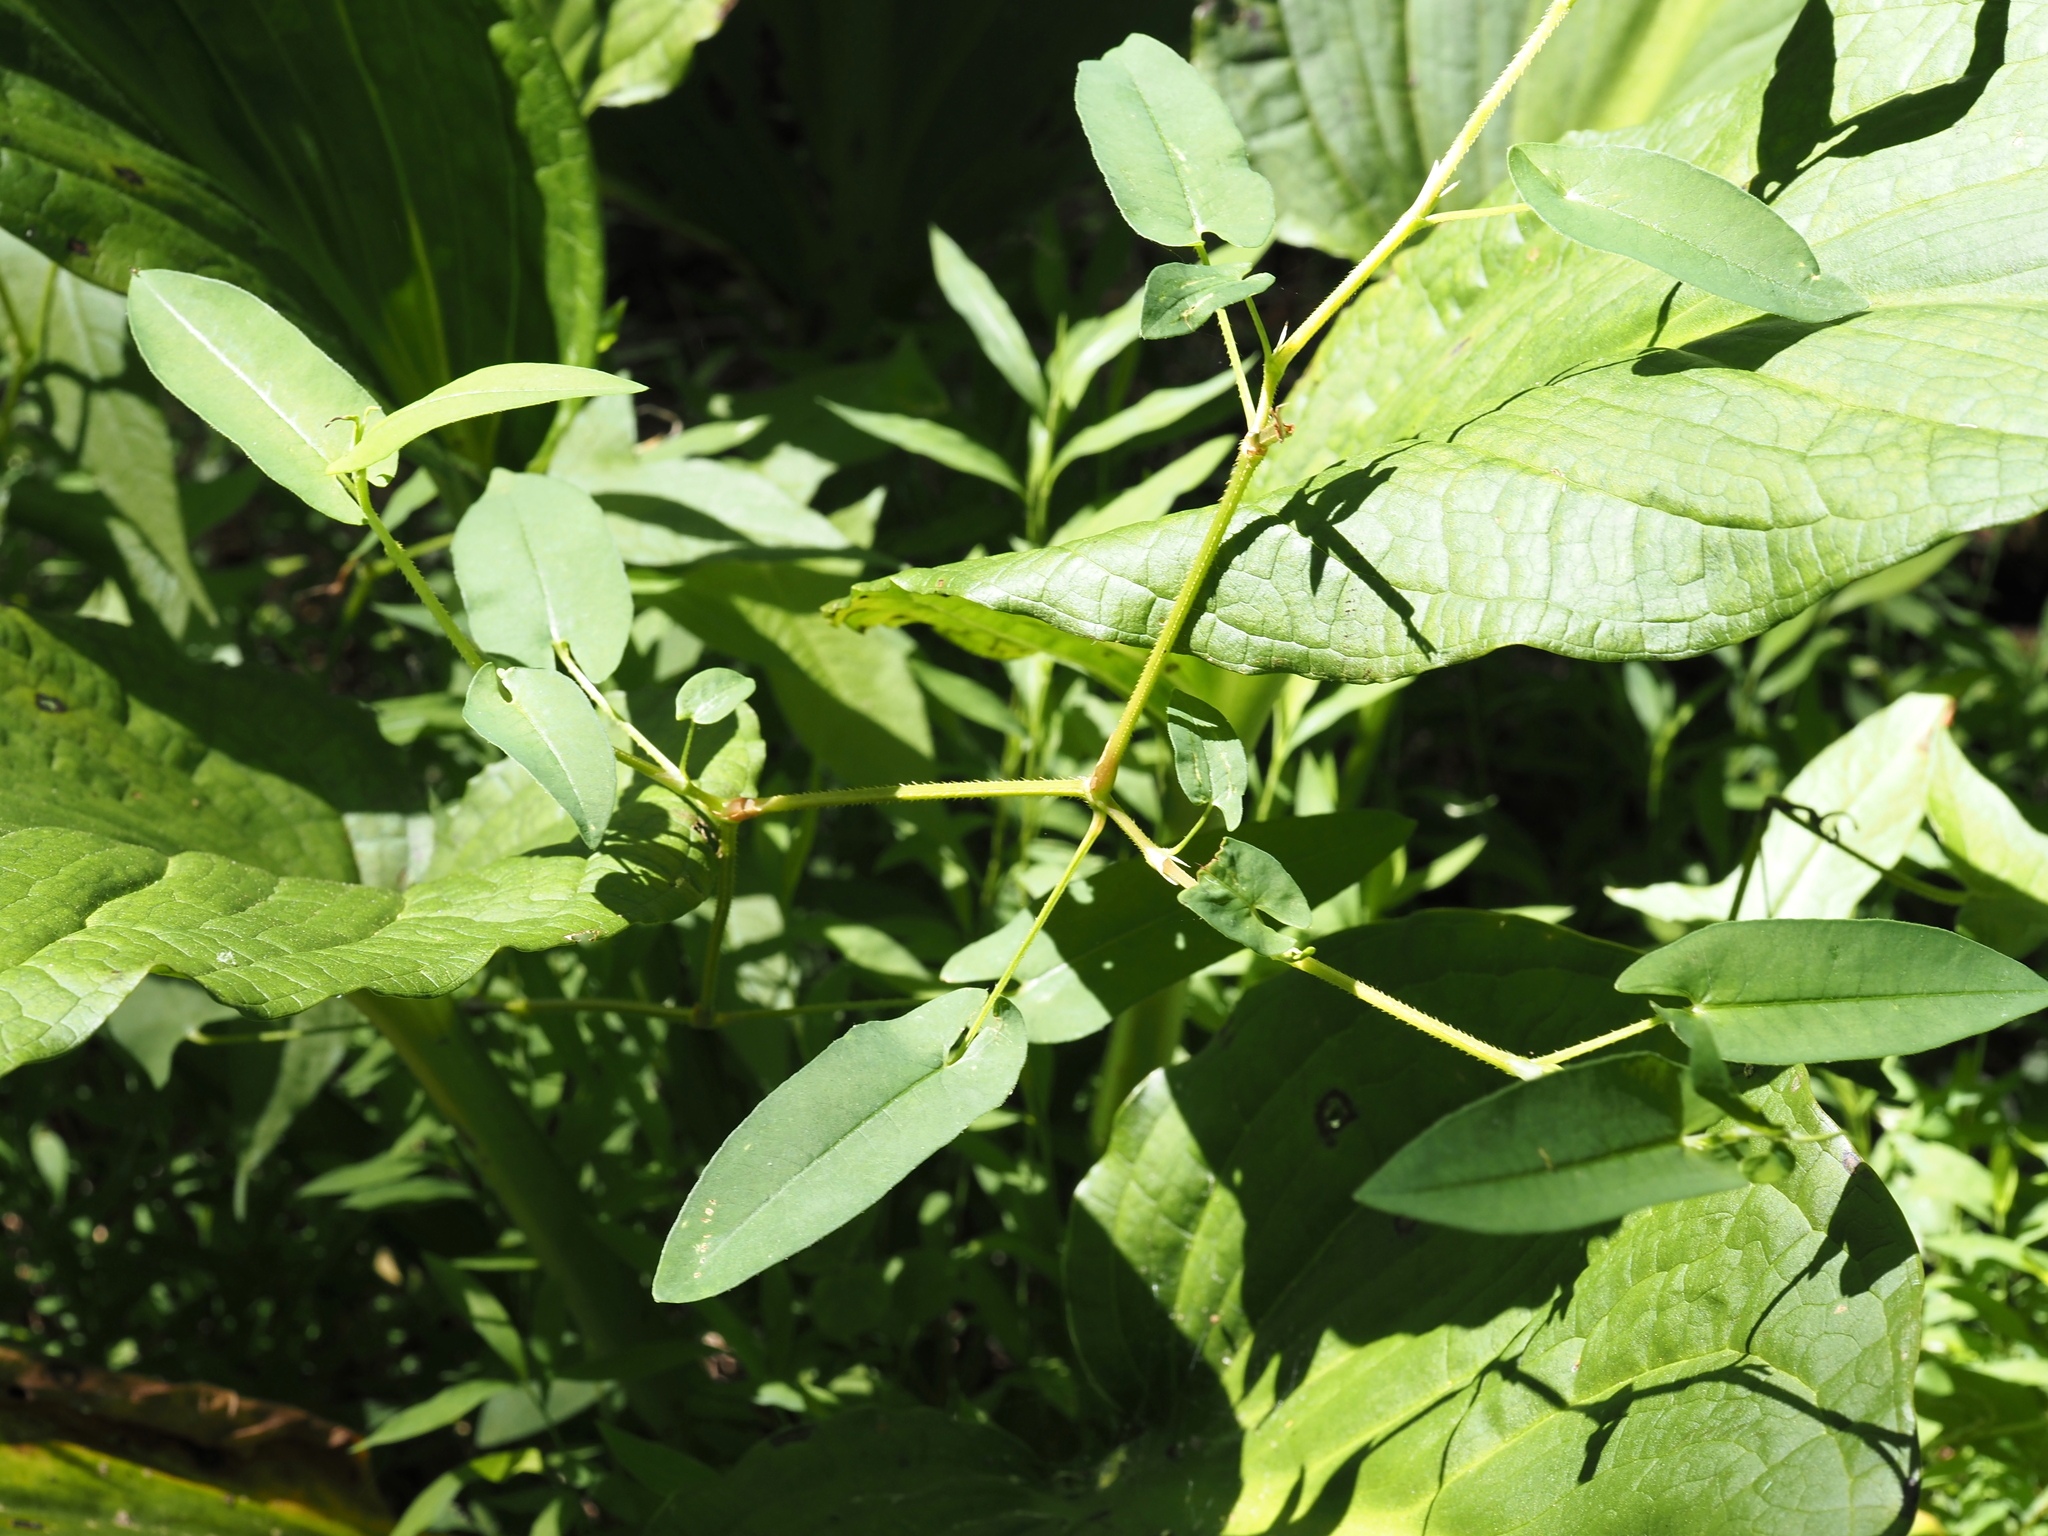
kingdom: Plantae
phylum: Tracheophyta
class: Magnoliopsida
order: Caryophyllales
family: Polygonaceae
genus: Persicaria
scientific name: Persicaria sagittata
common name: American tearthumb
